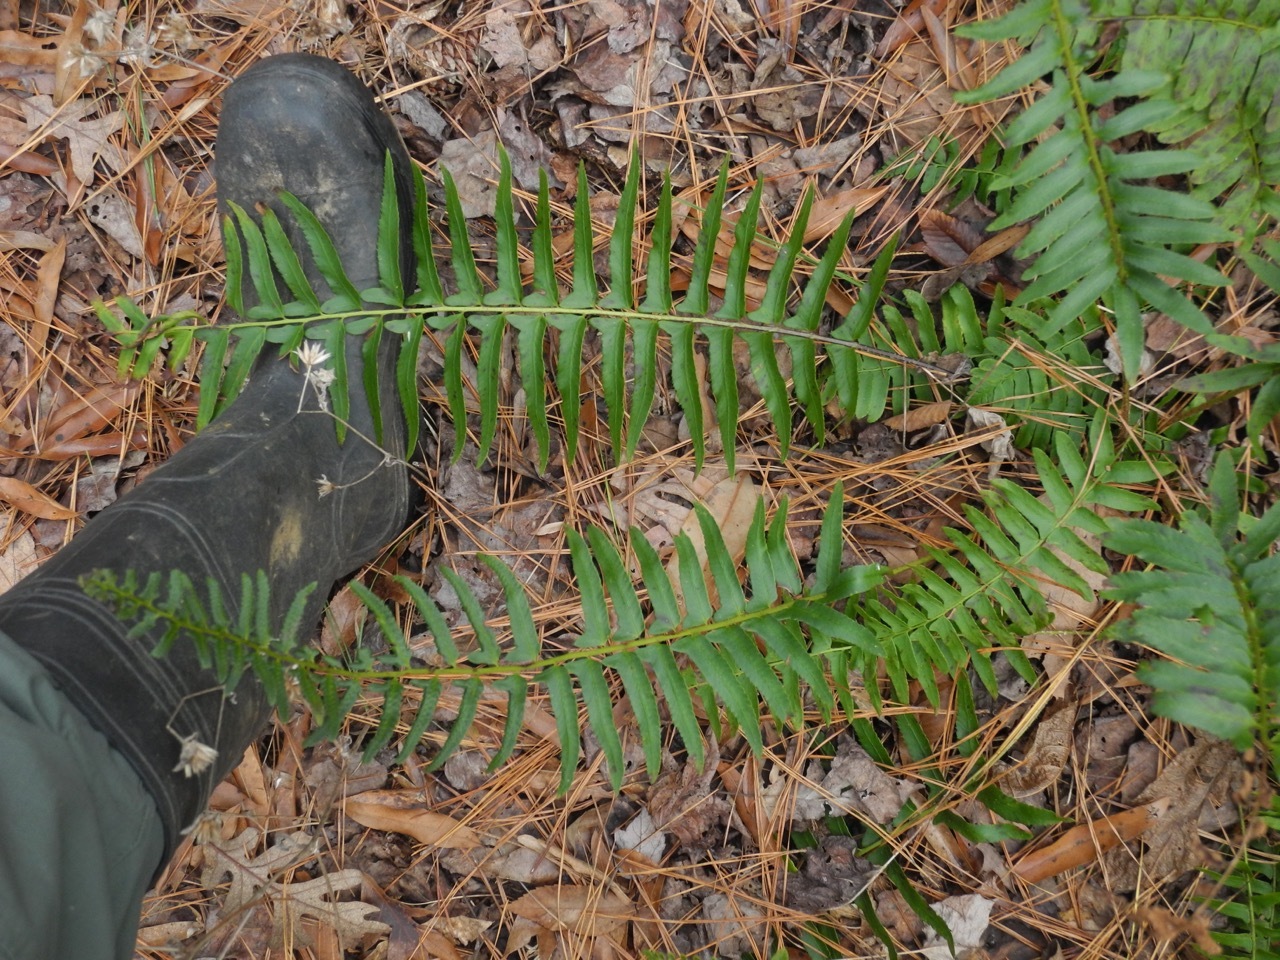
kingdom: Plantae
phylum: Tracheophyta
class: Polypodiopsida
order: Polypodiales
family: Dryopteridaceae
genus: Polystichum
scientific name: Polystichum acrostichoides
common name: Christmas fern
